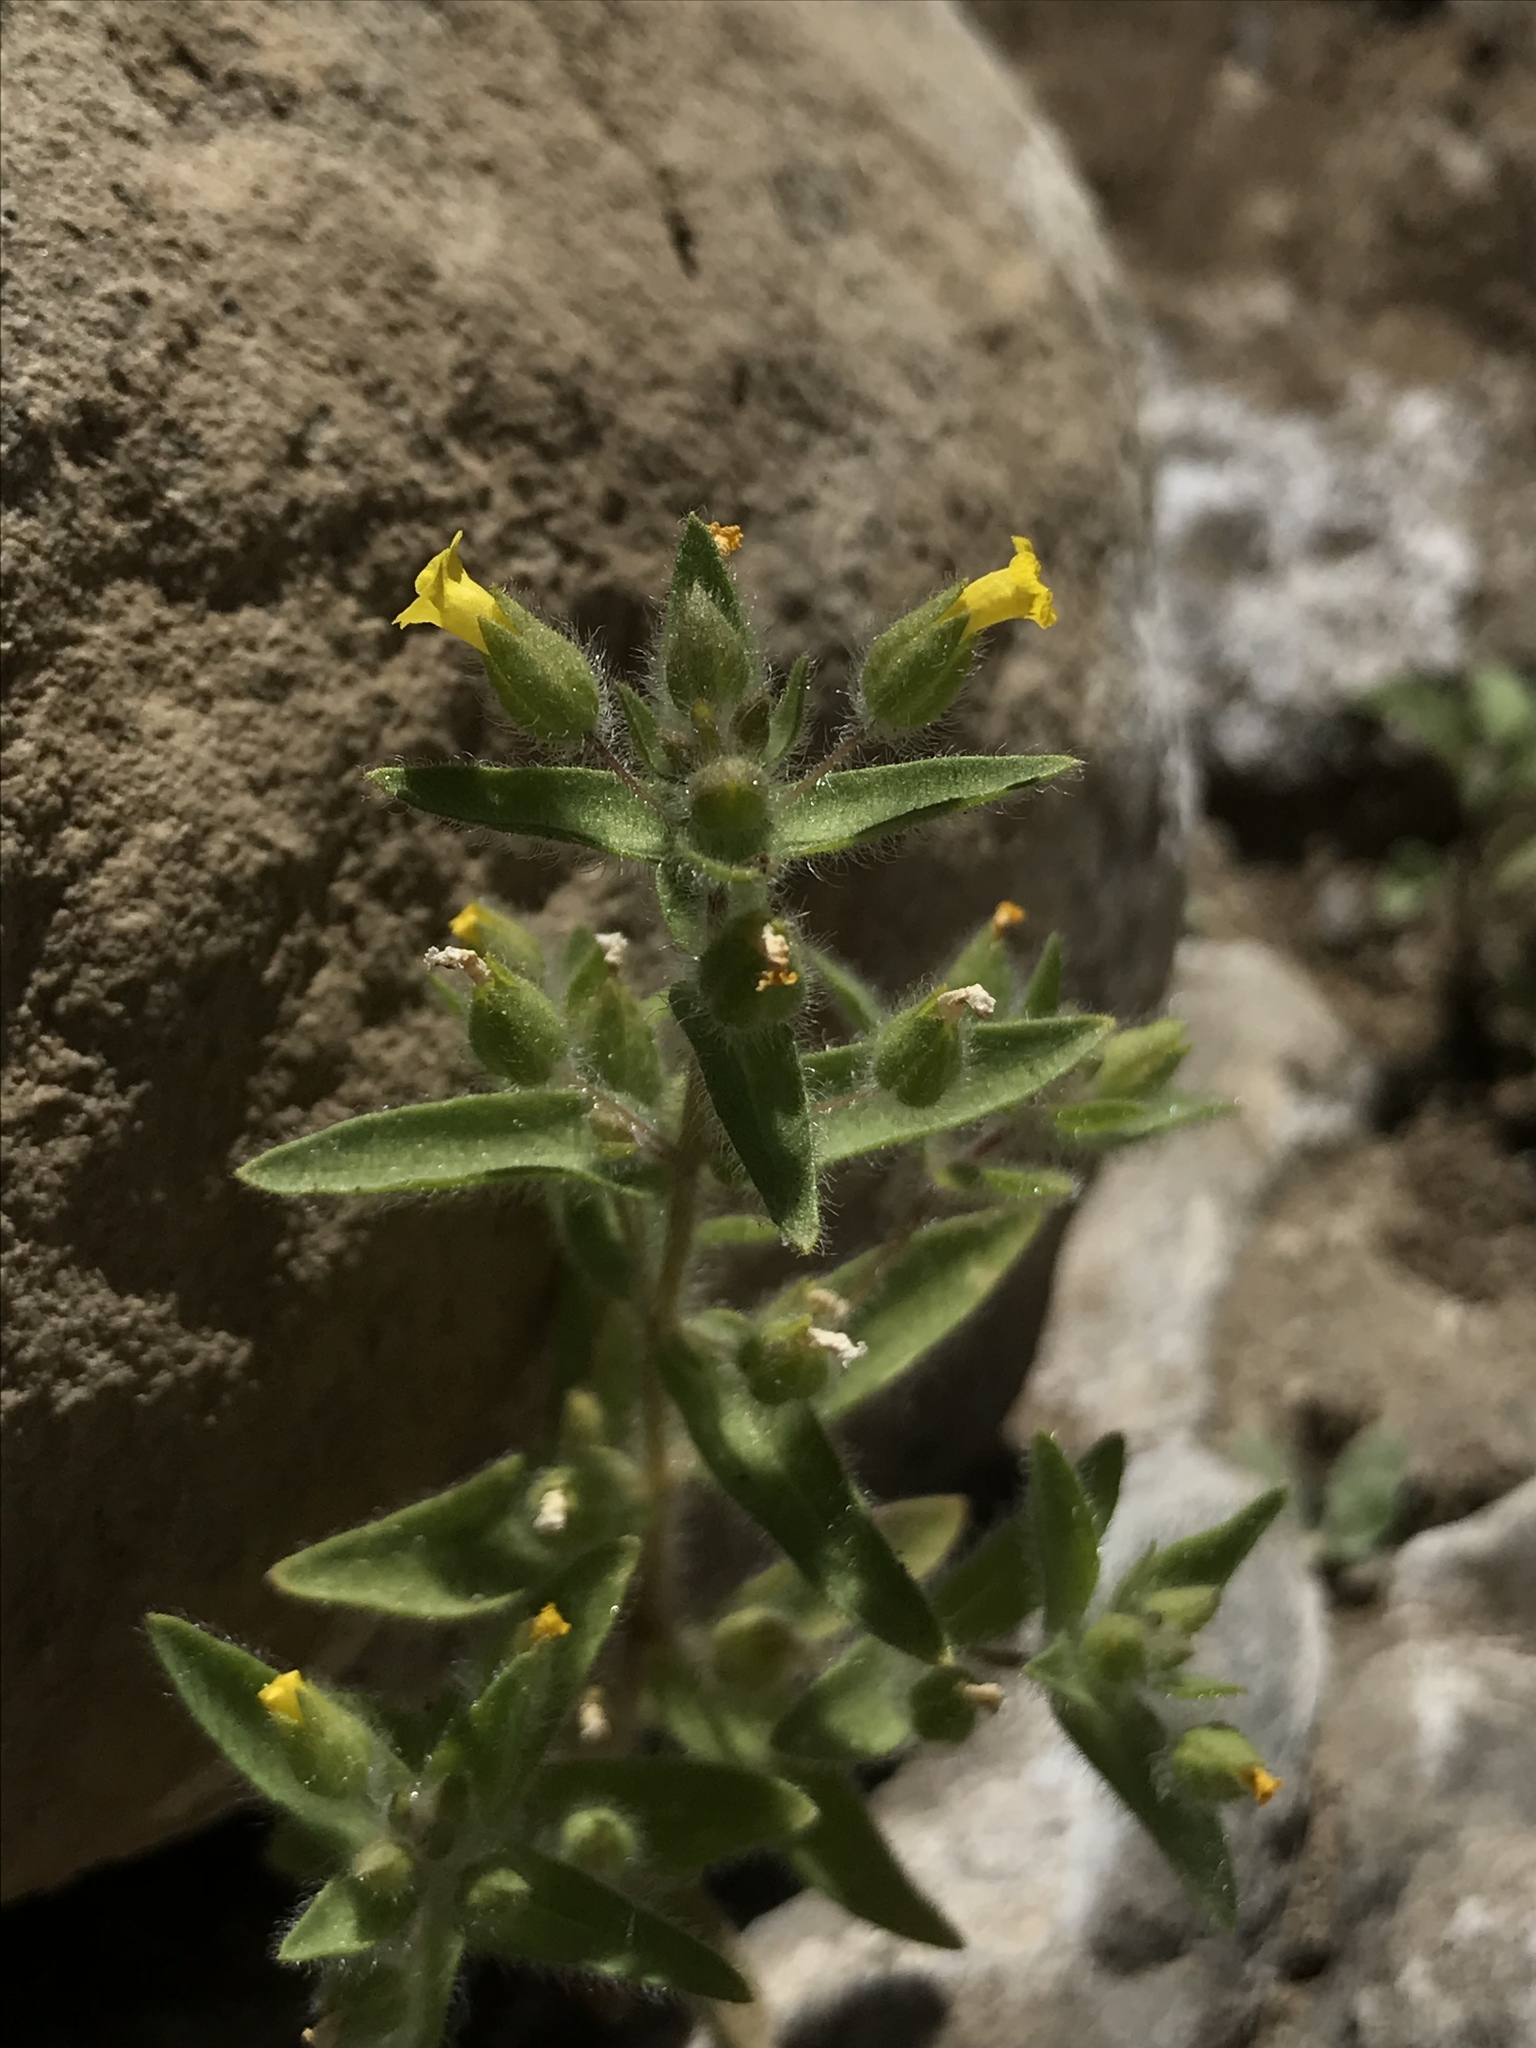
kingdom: Plantae
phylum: Tracheophyta
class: Magnoliopsida
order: Lamiales
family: Phrymaceae
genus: Mimetanthe
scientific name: Mimetanthe pilosa
